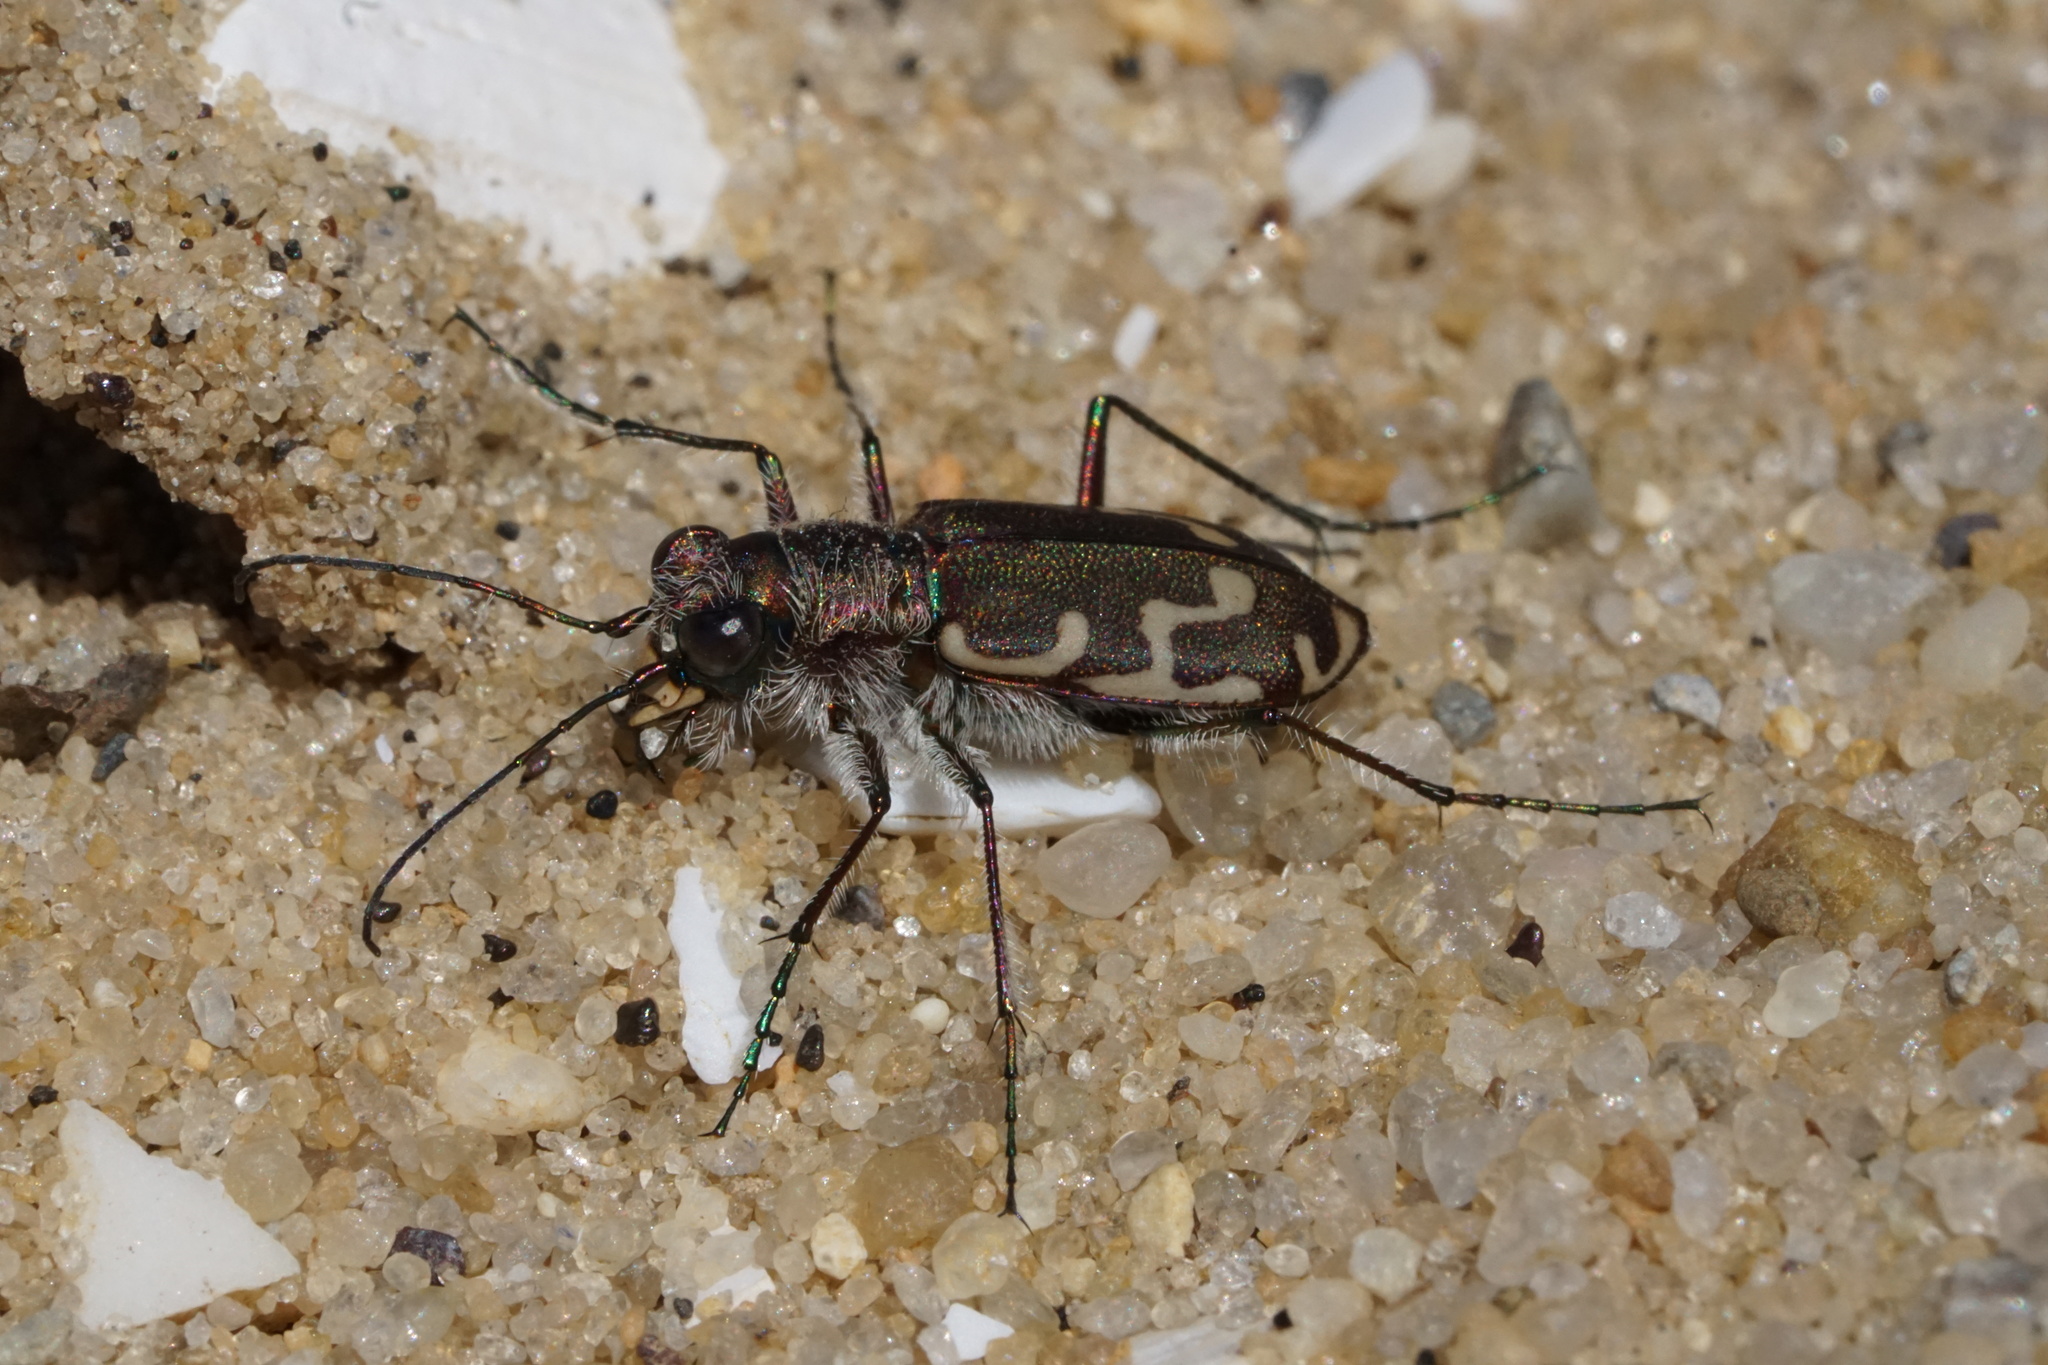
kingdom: Animalia
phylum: Arthropoda
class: Insecta
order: Coleoptera
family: Carabidae
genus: Cicindela
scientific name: Cicindela repanda
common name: Bronzed tiger beetle
